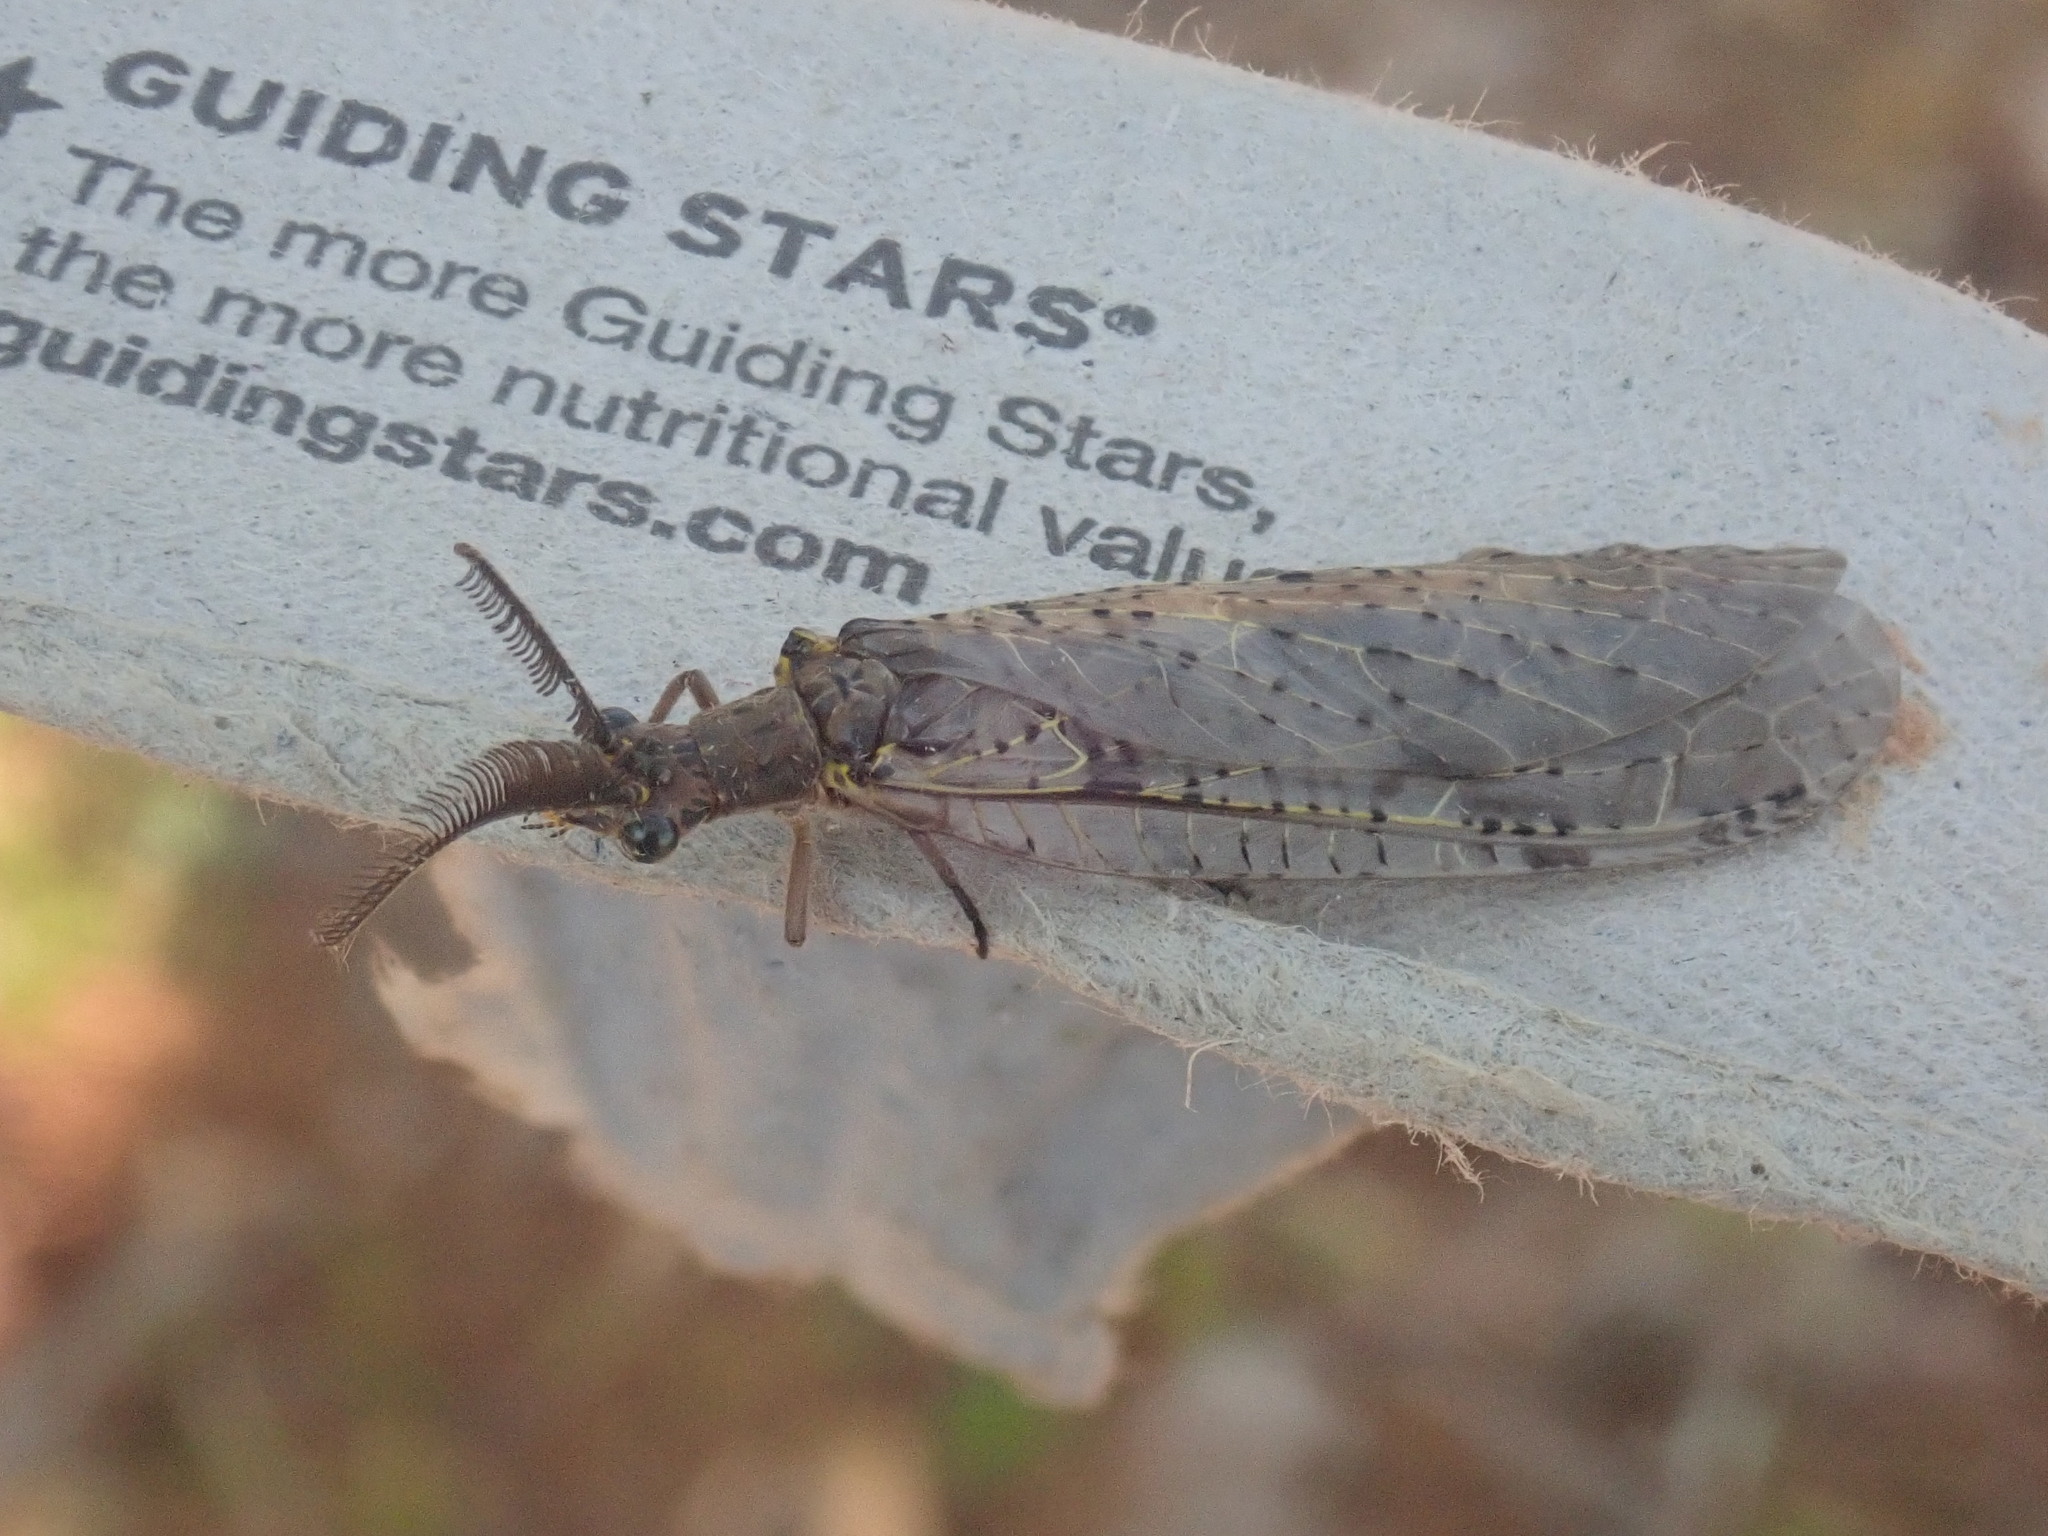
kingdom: Animalia
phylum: Arthropoda
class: Insecta
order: Megaloptera
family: Corydalidae
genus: Chauliodes
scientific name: Chauliodes rastricornis
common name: Spring fishfly
